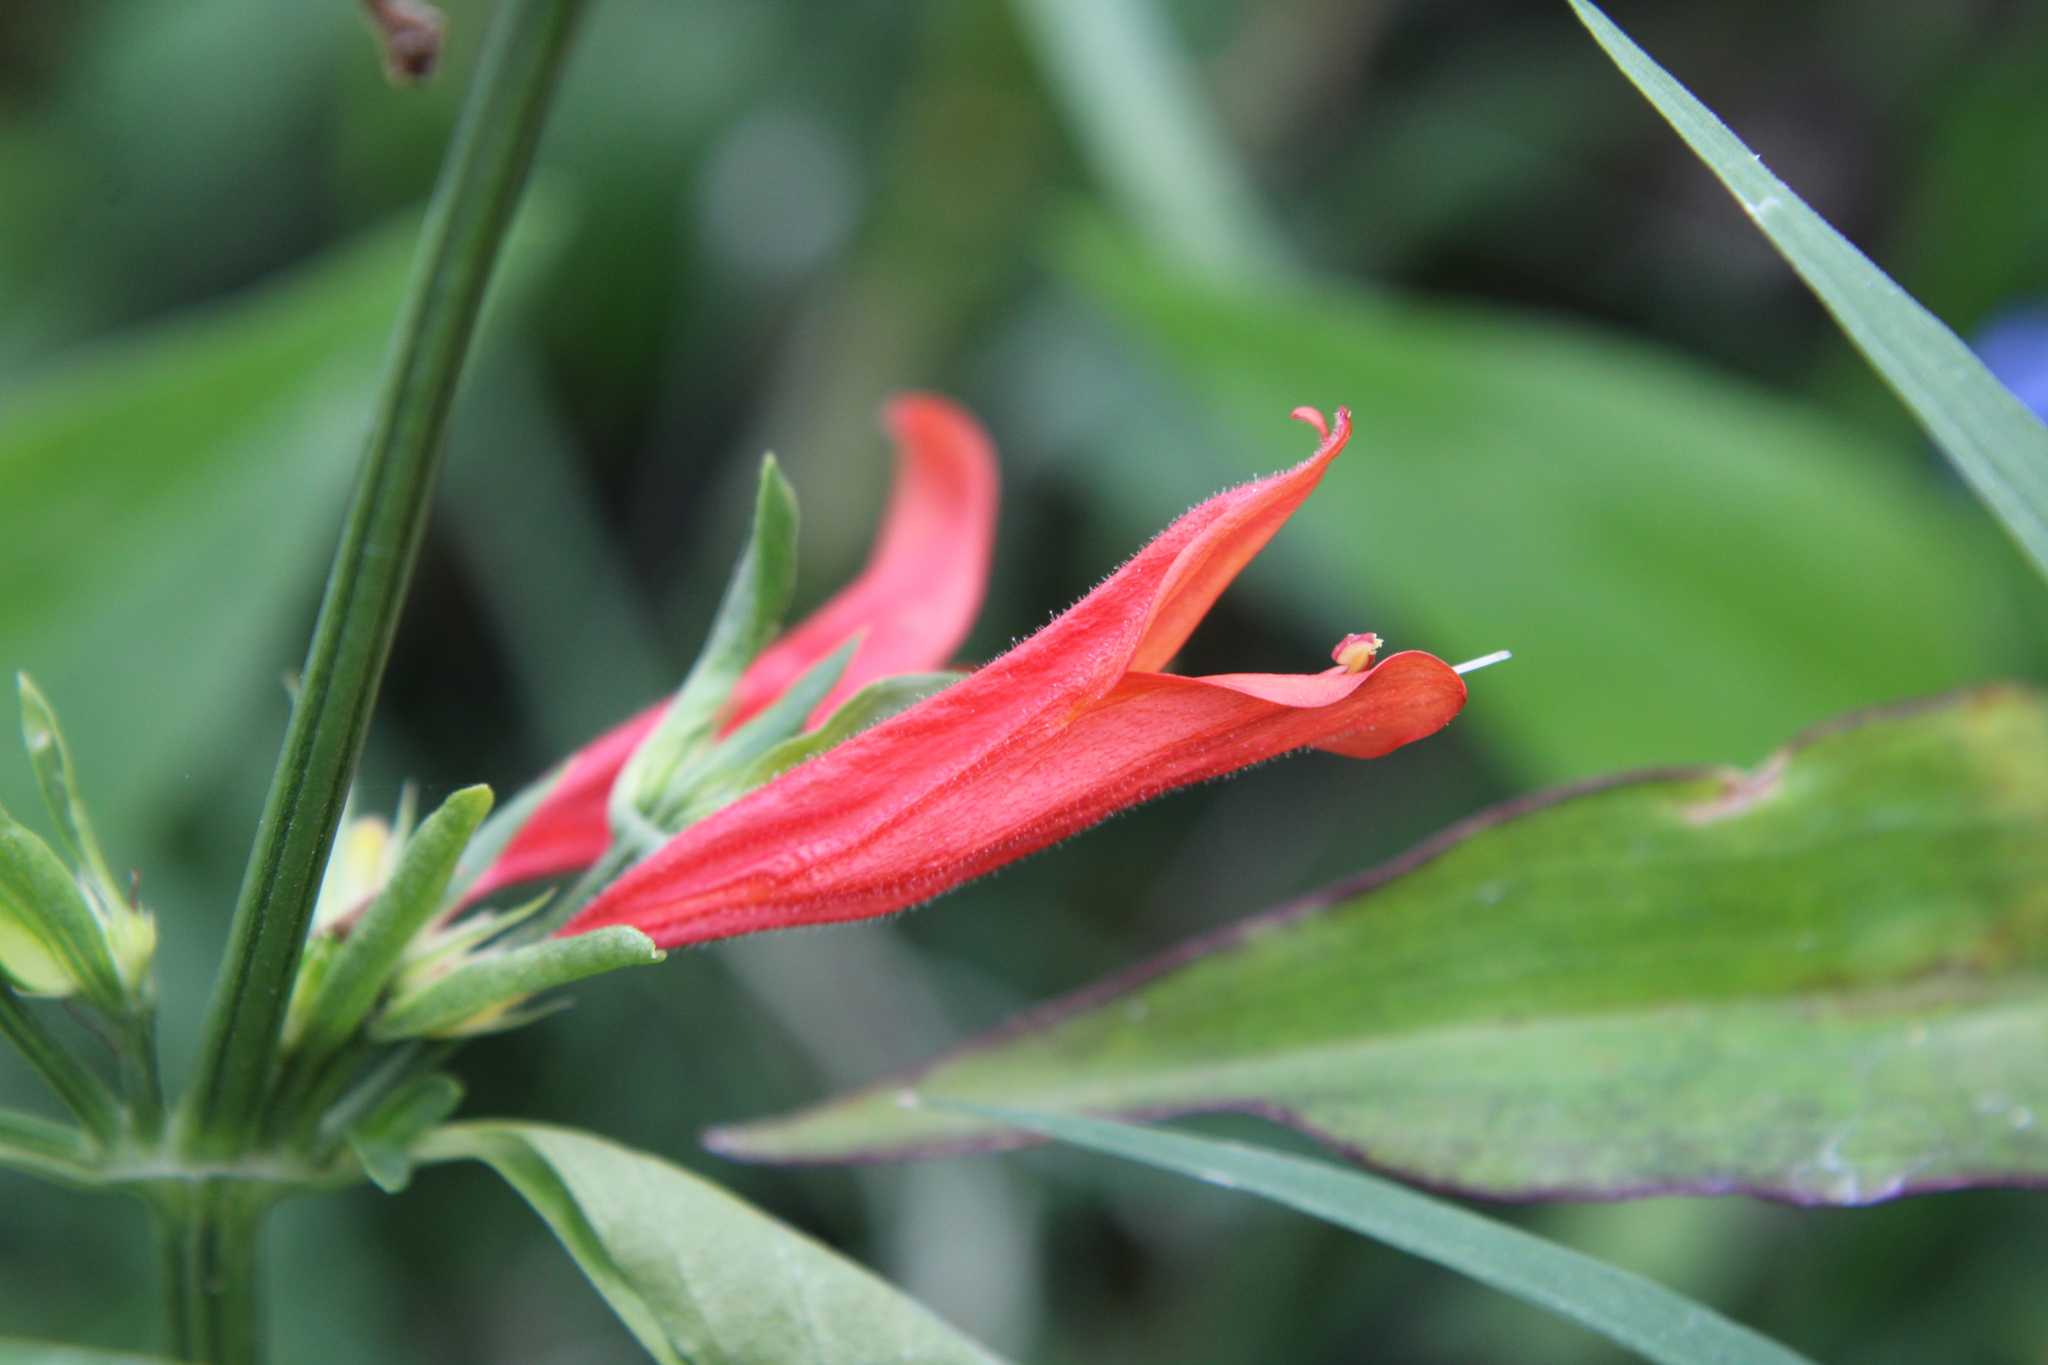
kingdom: Plantae
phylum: Tracheophyta
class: Magnoliopsida
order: Lamiales
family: Acanthaceae
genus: Dicliptera
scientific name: Dicliptera squarrosa
